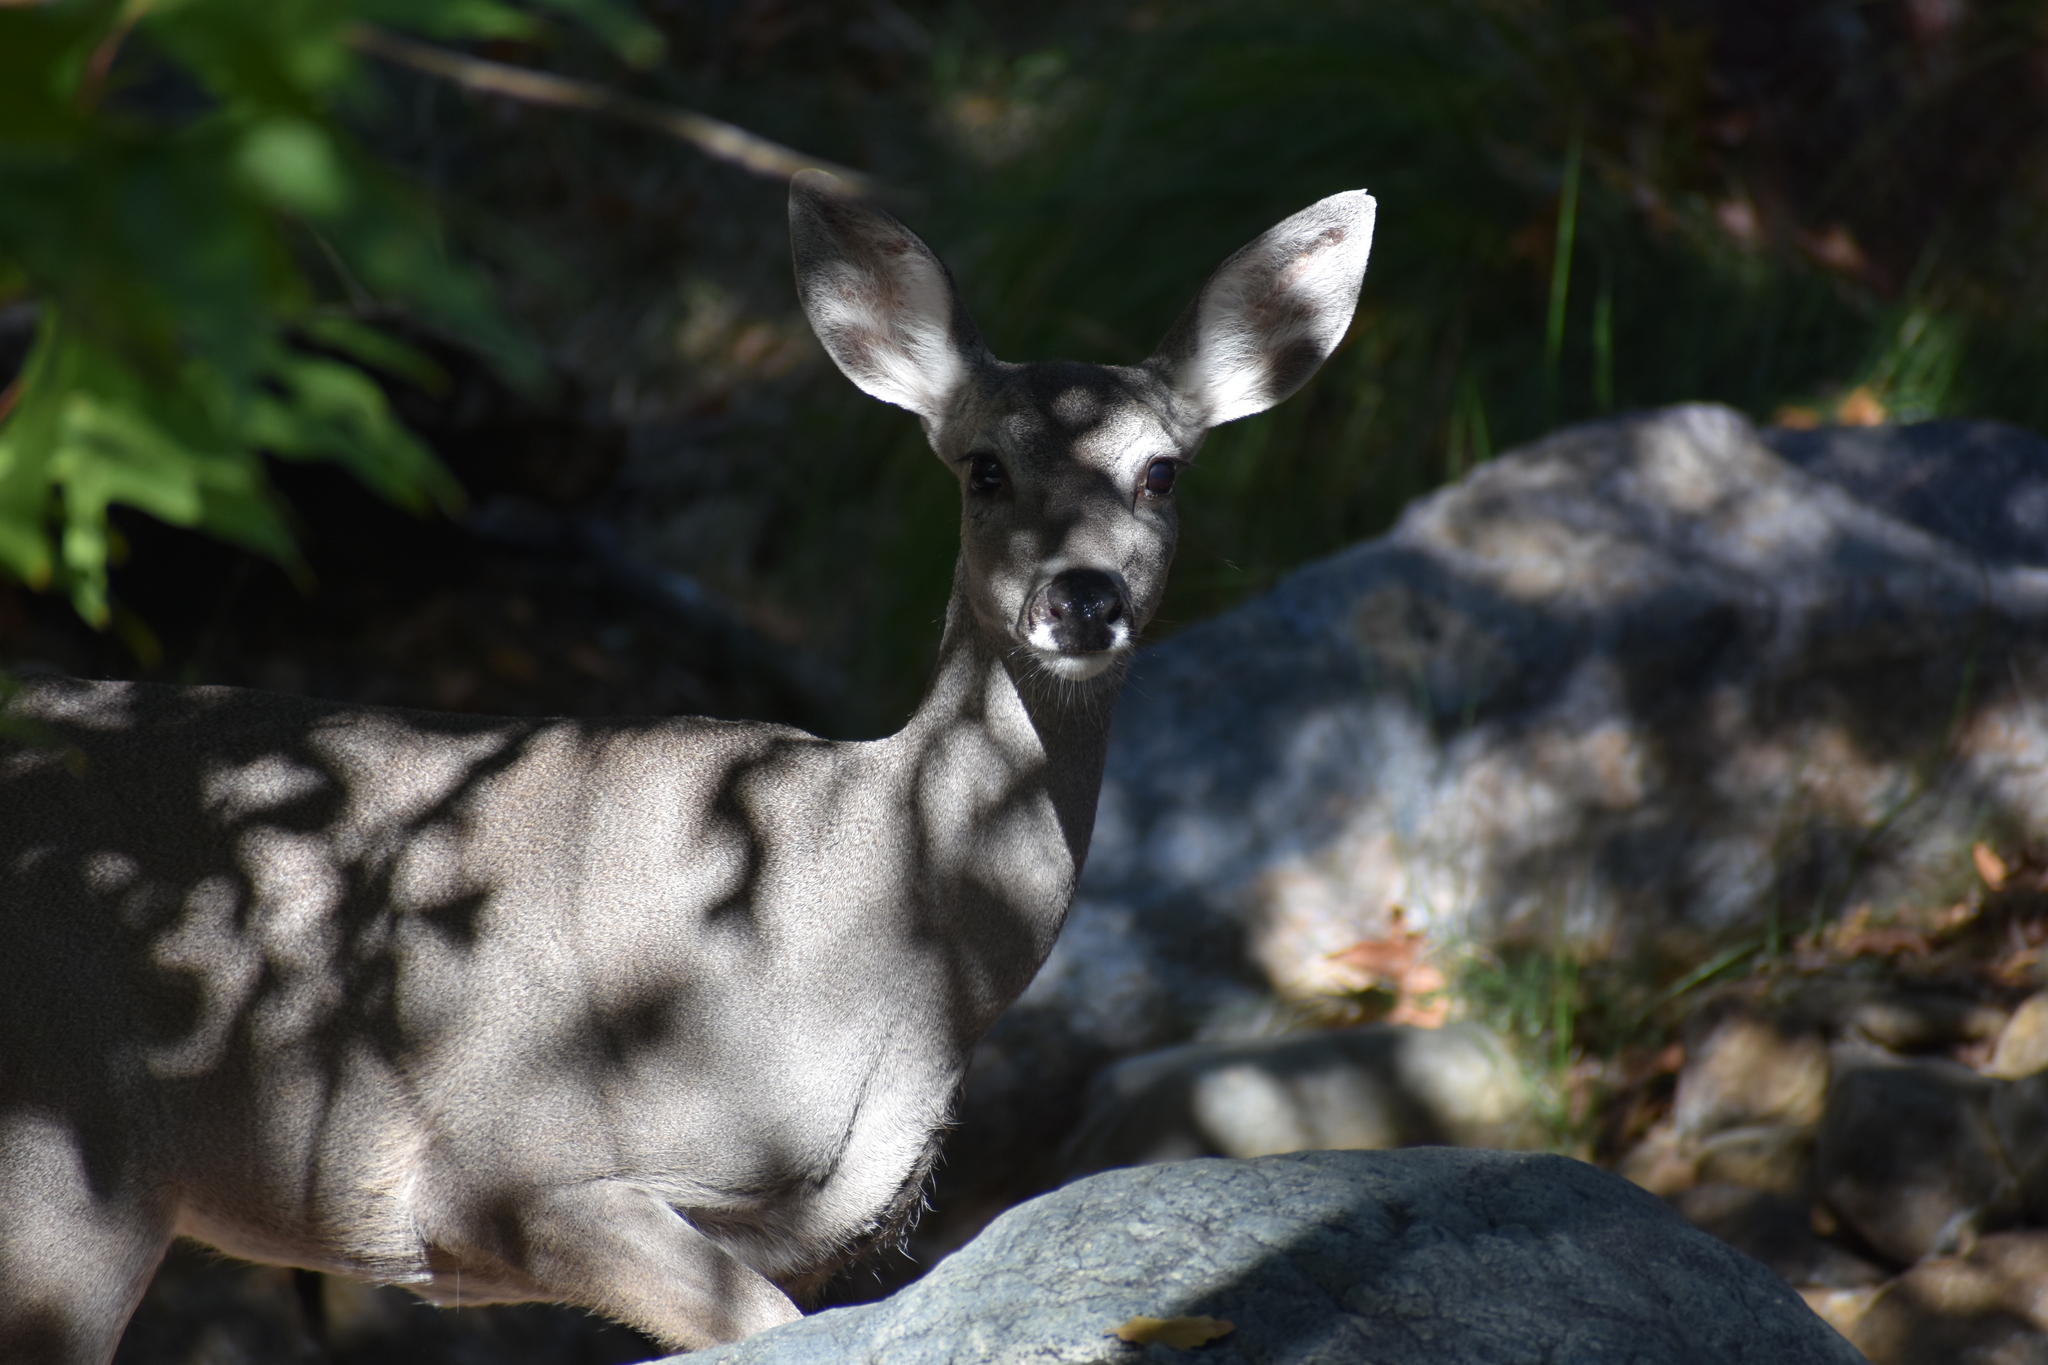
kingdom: Animalia
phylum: Chordata
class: Mammalia
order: Artiodactyla
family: Cervidae
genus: Odocoileus
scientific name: Odocoileus hemionus
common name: Mule deer
